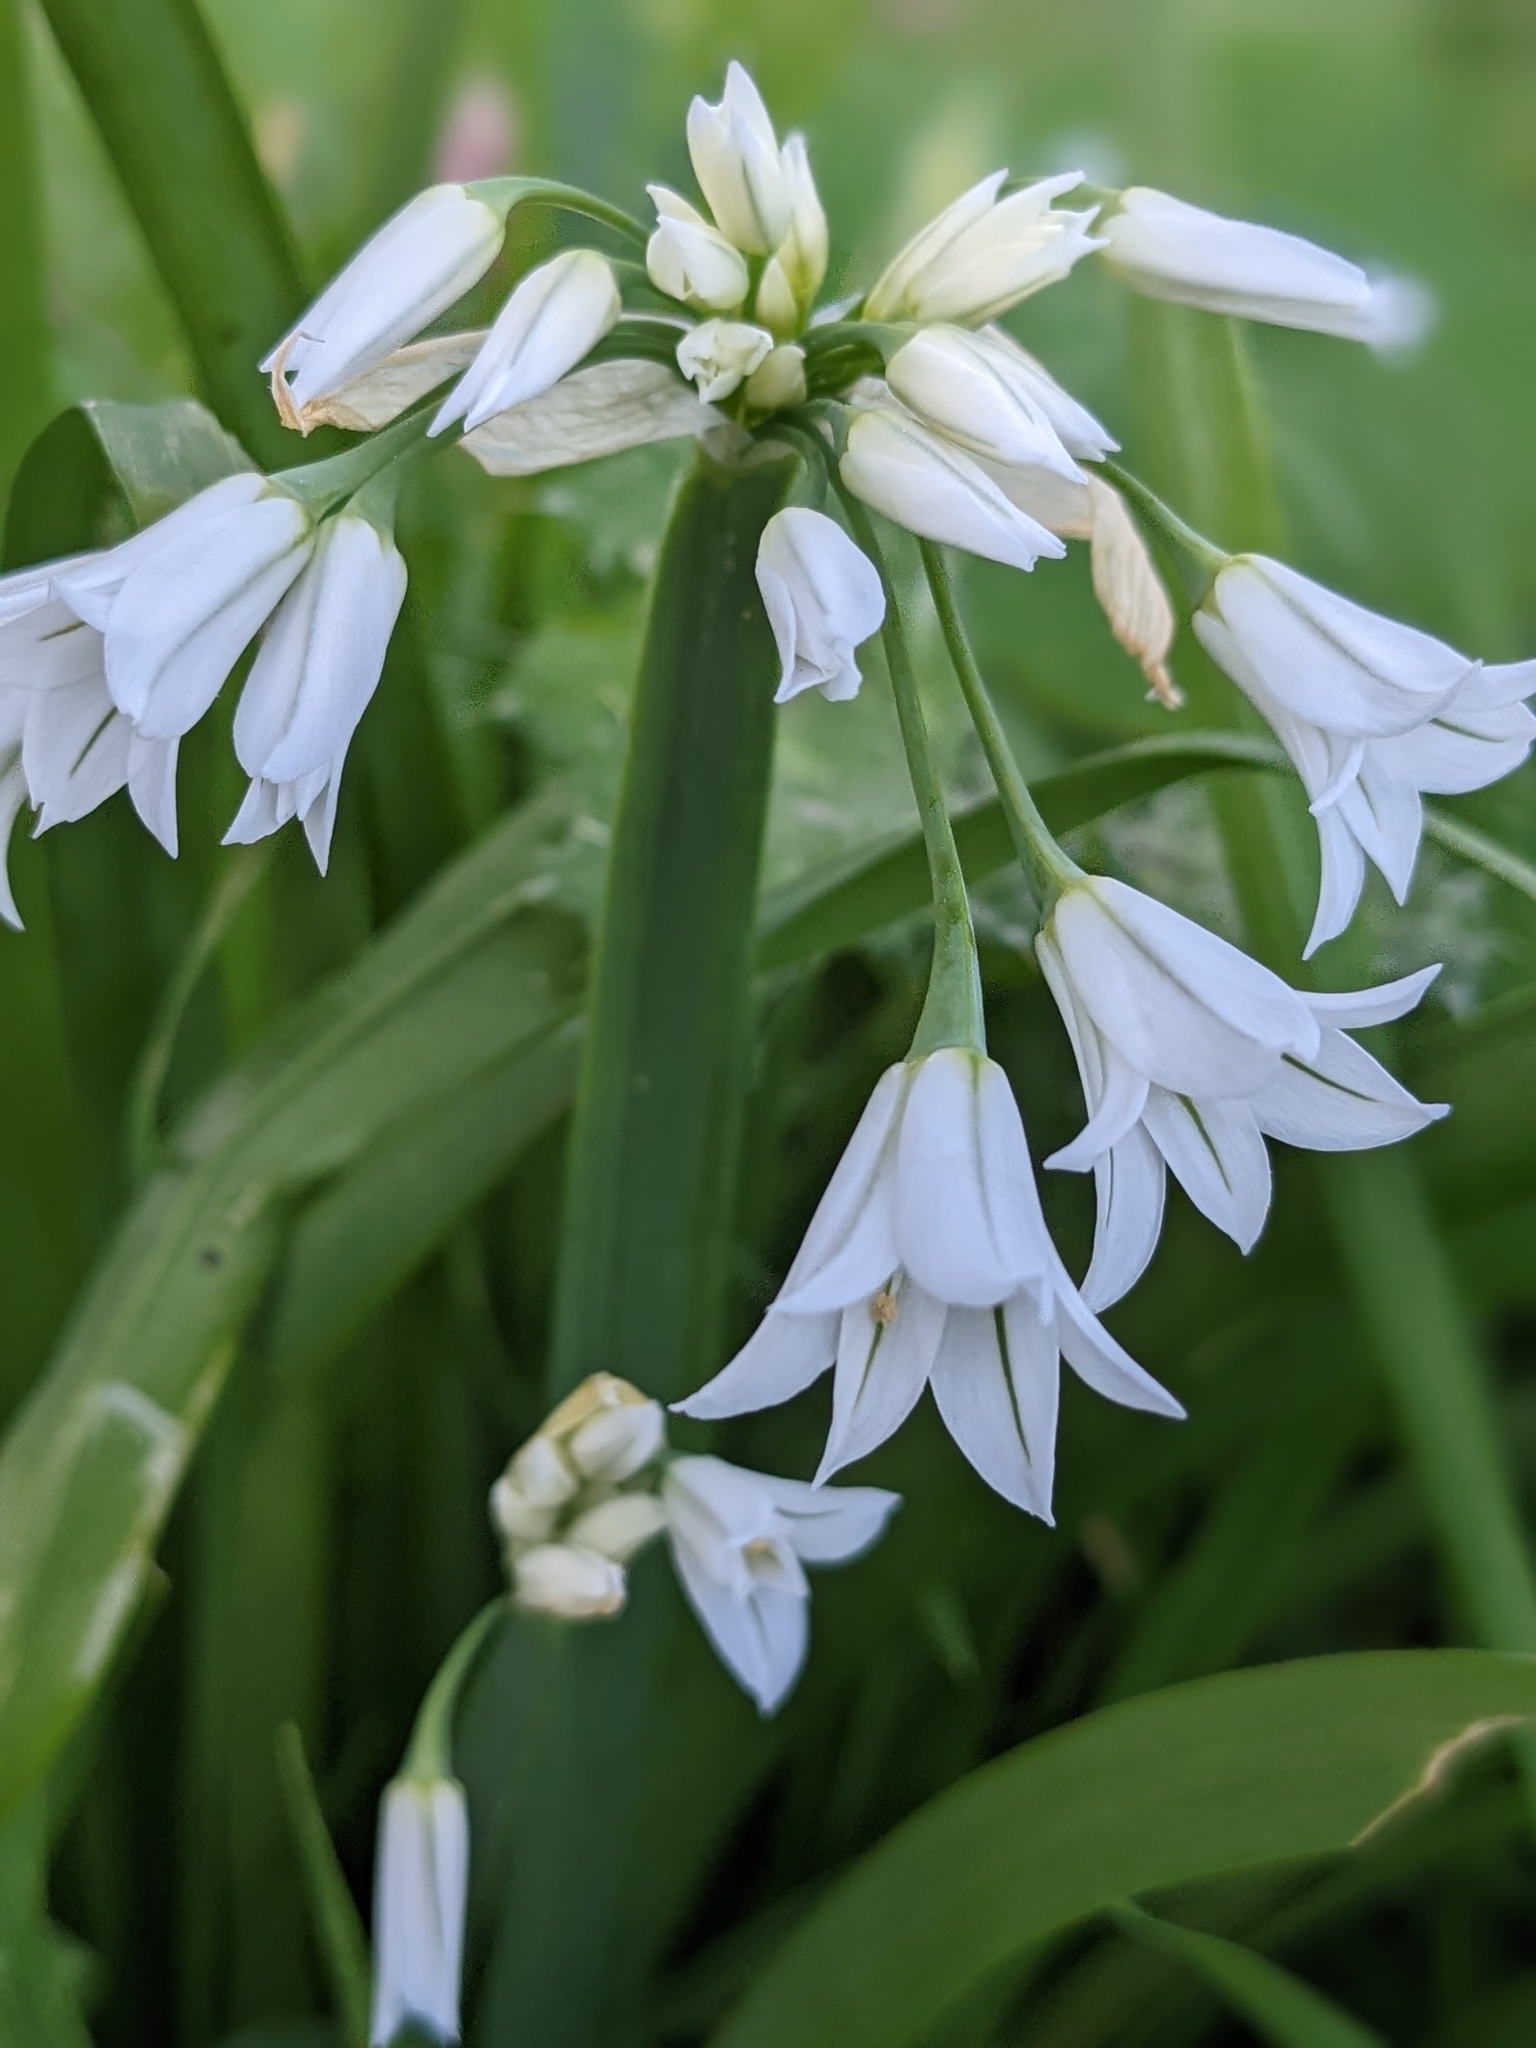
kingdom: Plantae
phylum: Tracheophyta
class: Liliopsida
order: Asparagales
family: Amaryllidaceae
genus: Allium
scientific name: Allium triquetrum
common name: Three-cornered garlic
